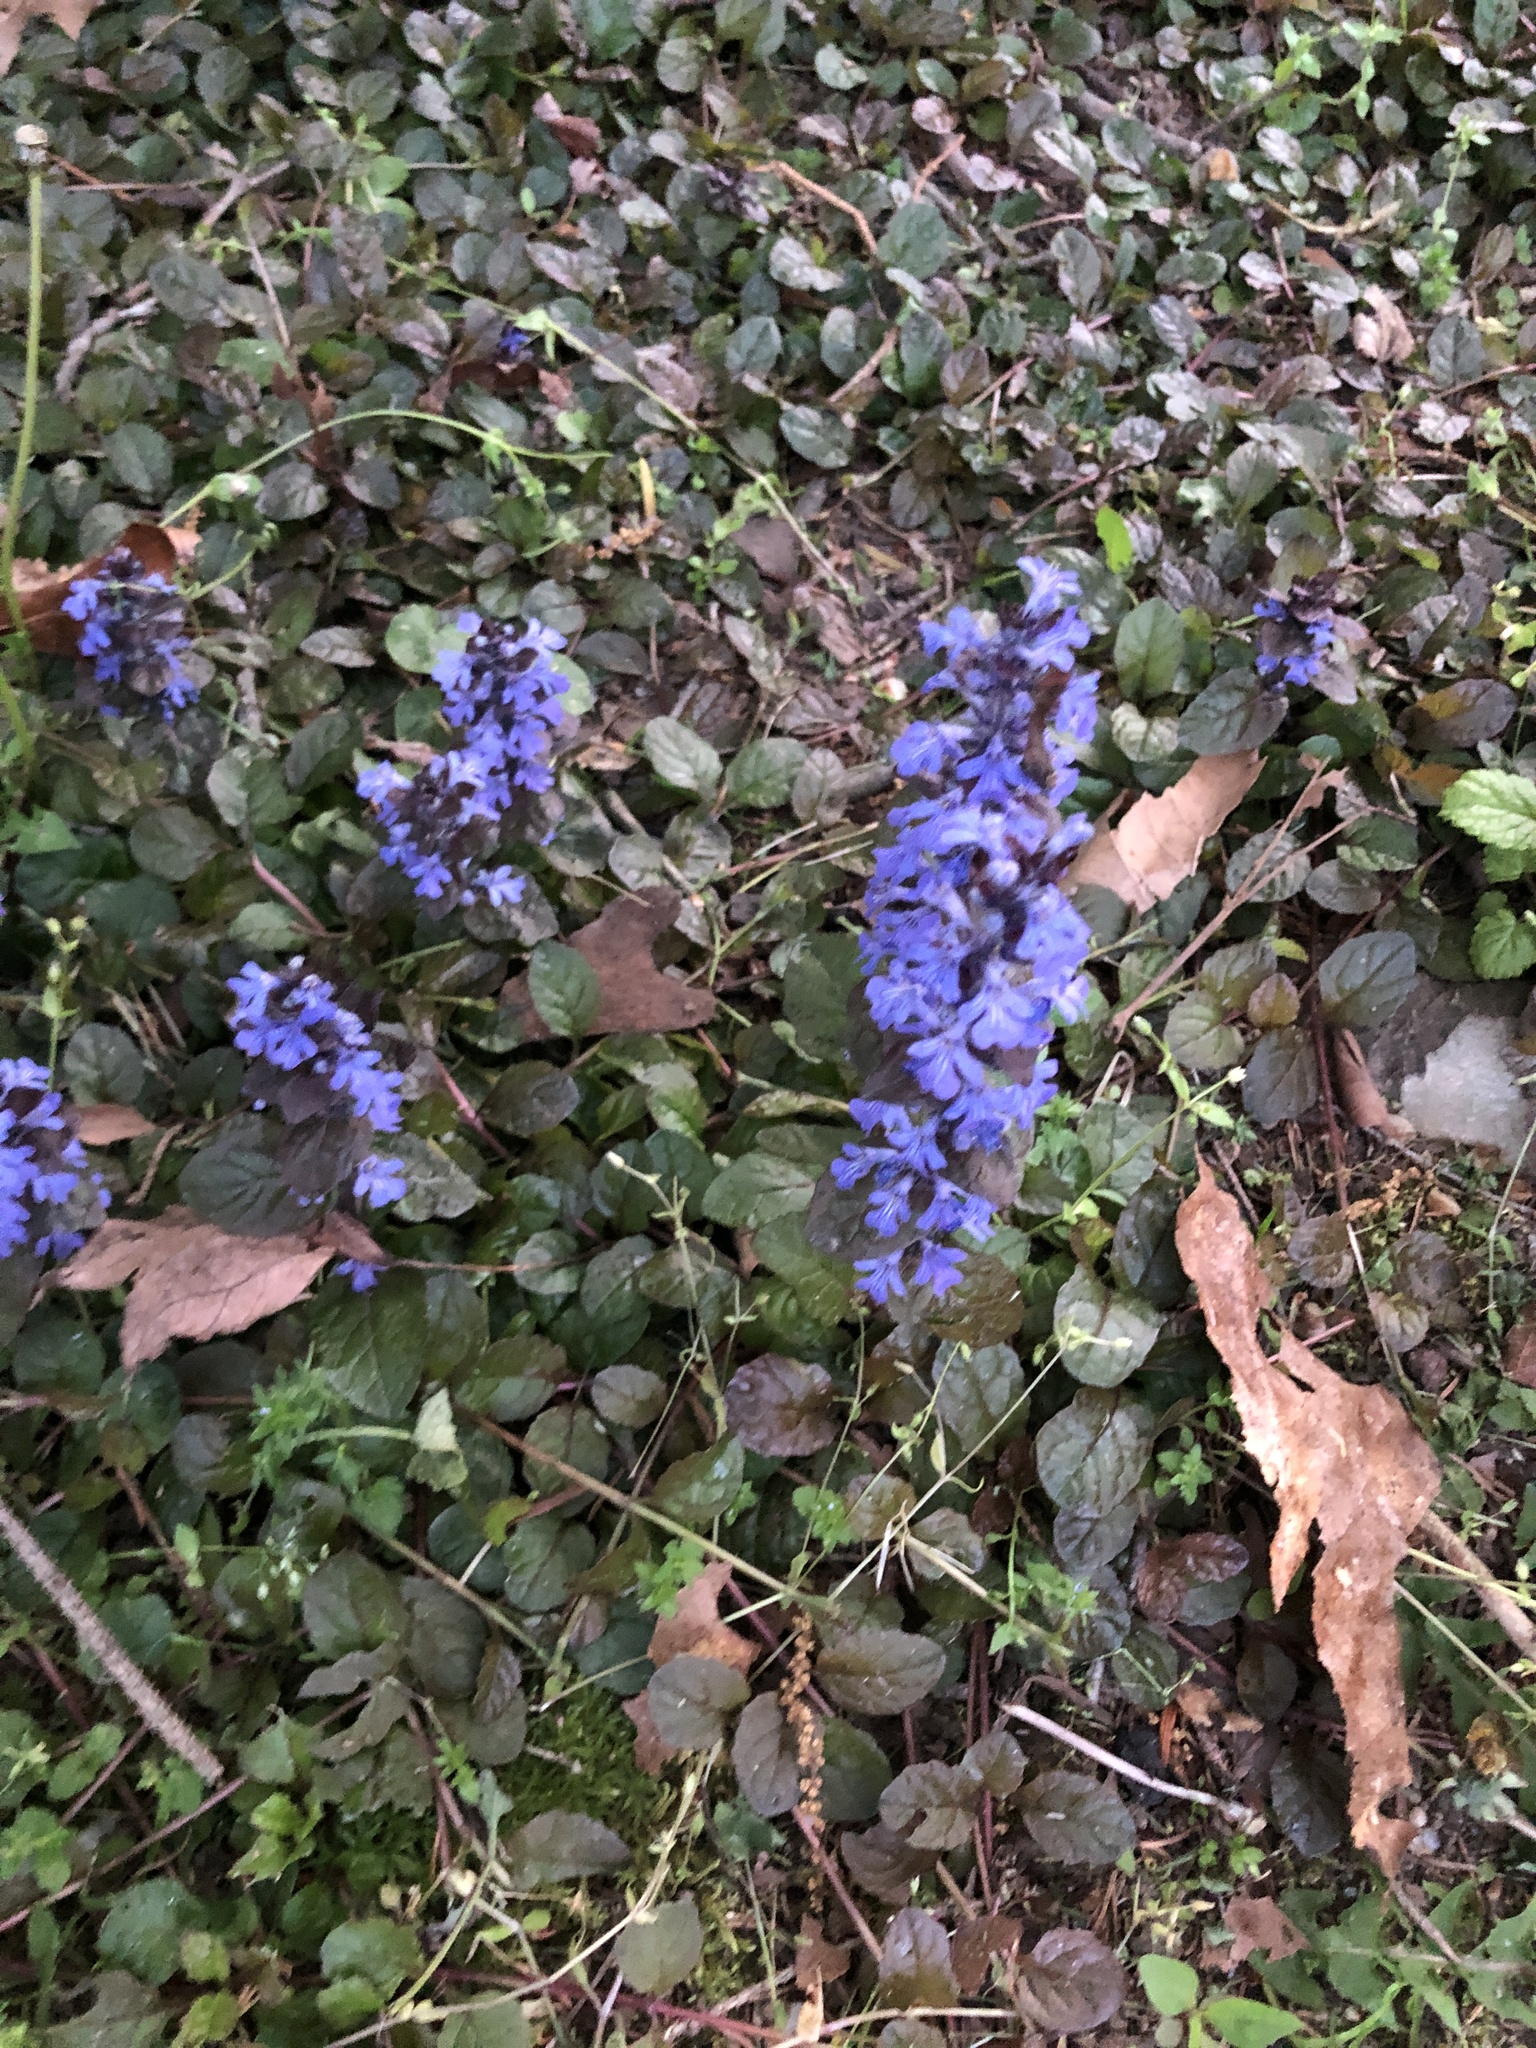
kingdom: Plantae
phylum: Tracheophyta
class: Magnoliopsida
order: Lamiales
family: Lamiaceae
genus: Ajuga
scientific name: Ajuga reptans
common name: Bugle
